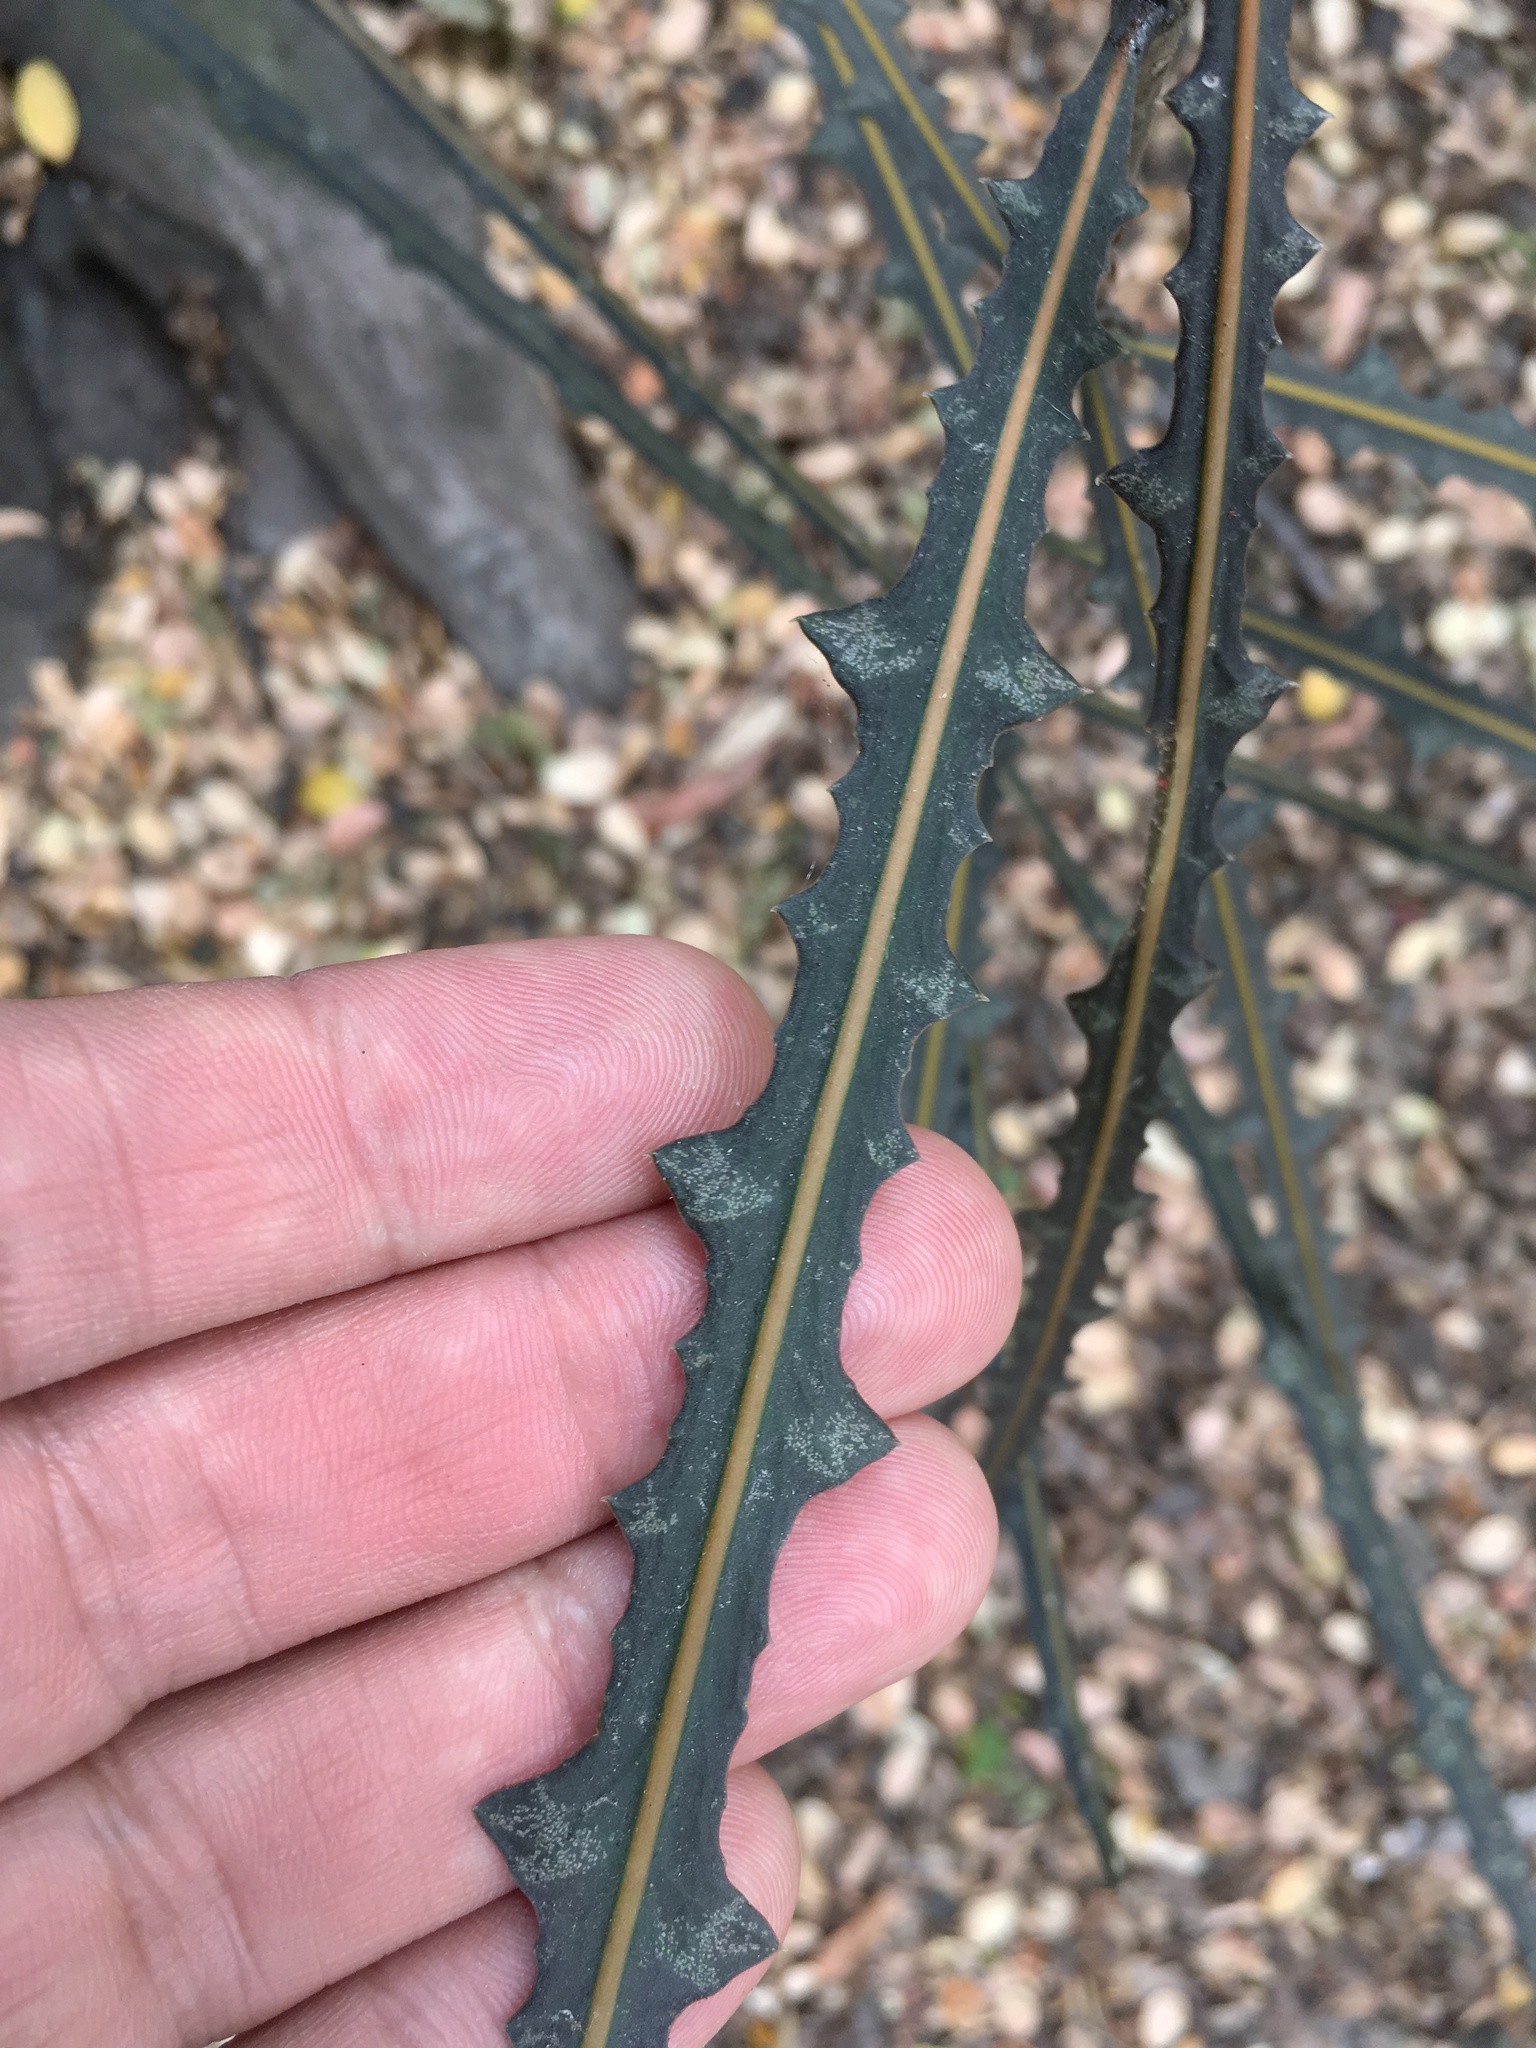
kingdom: Plantae
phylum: Tracheophyta
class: Magnoliopsida
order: Apiales
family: Araliaceae
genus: Pseudopanax
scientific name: Pseudopanax ferox
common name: Fierce lancewood
